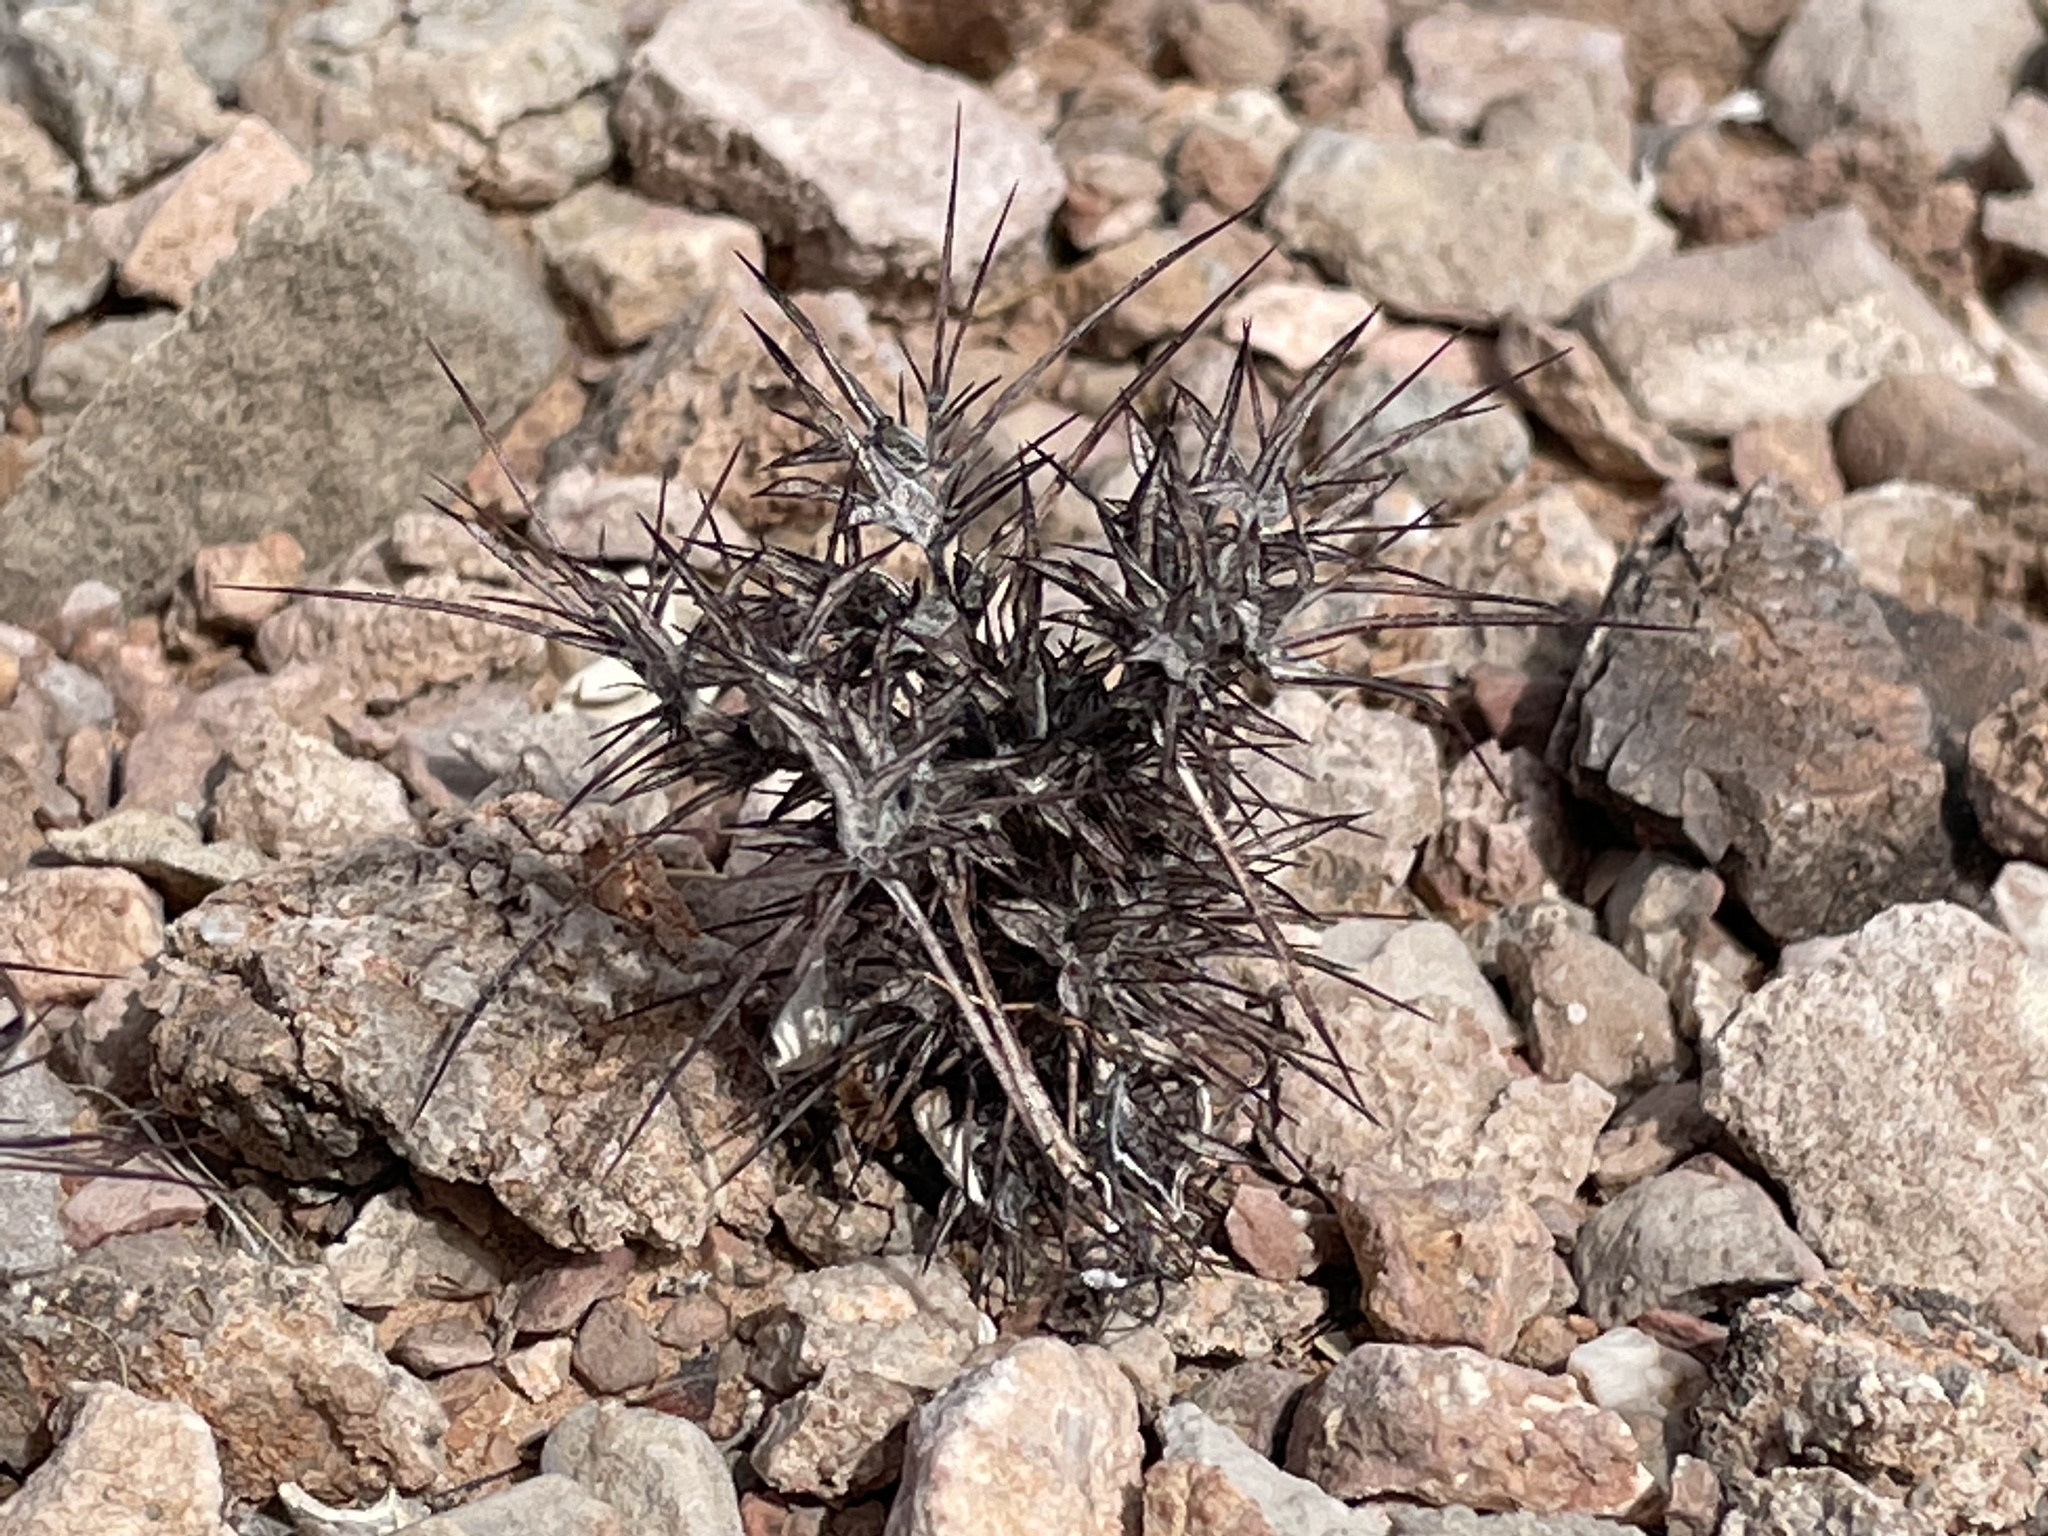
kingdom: Plantae
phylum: Tracheophyta
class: Magnoliopsida
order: Caryophyllales
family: Polygonaceae
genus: Chorizanthe
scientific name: Chorizanthe rigida
